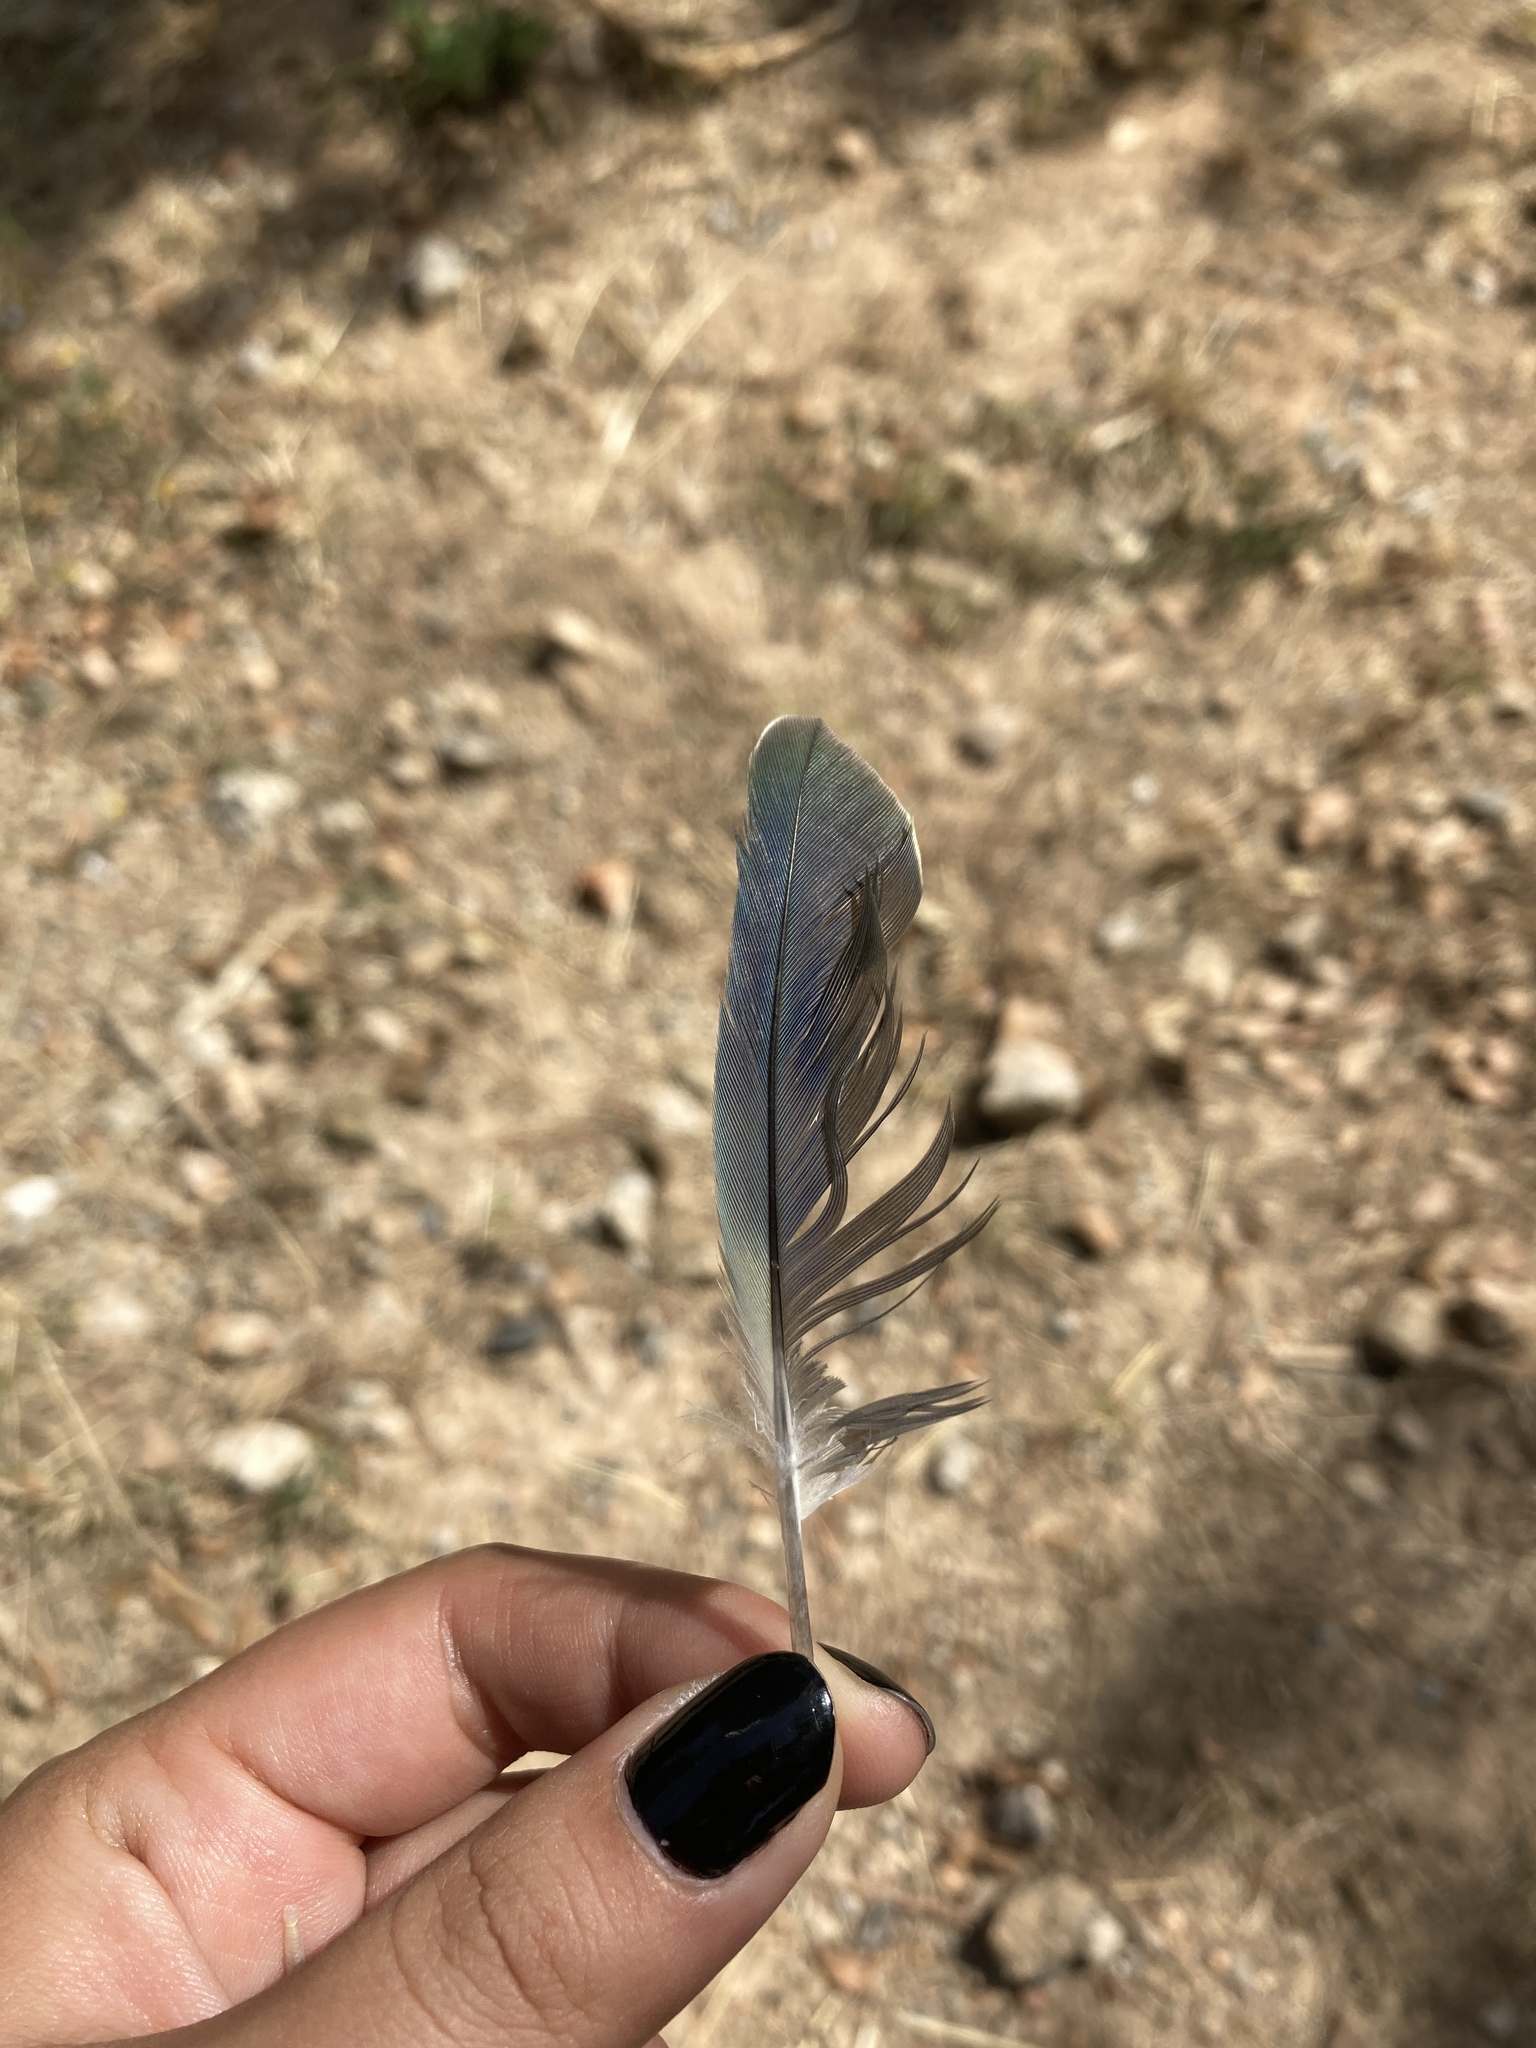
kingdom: Animalia
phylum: Chordata
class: Aves
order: Psittaciformes
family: Psittacidae
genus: Myiopsitta
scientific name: Myiopsitta monachus
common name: Monk parakeet
